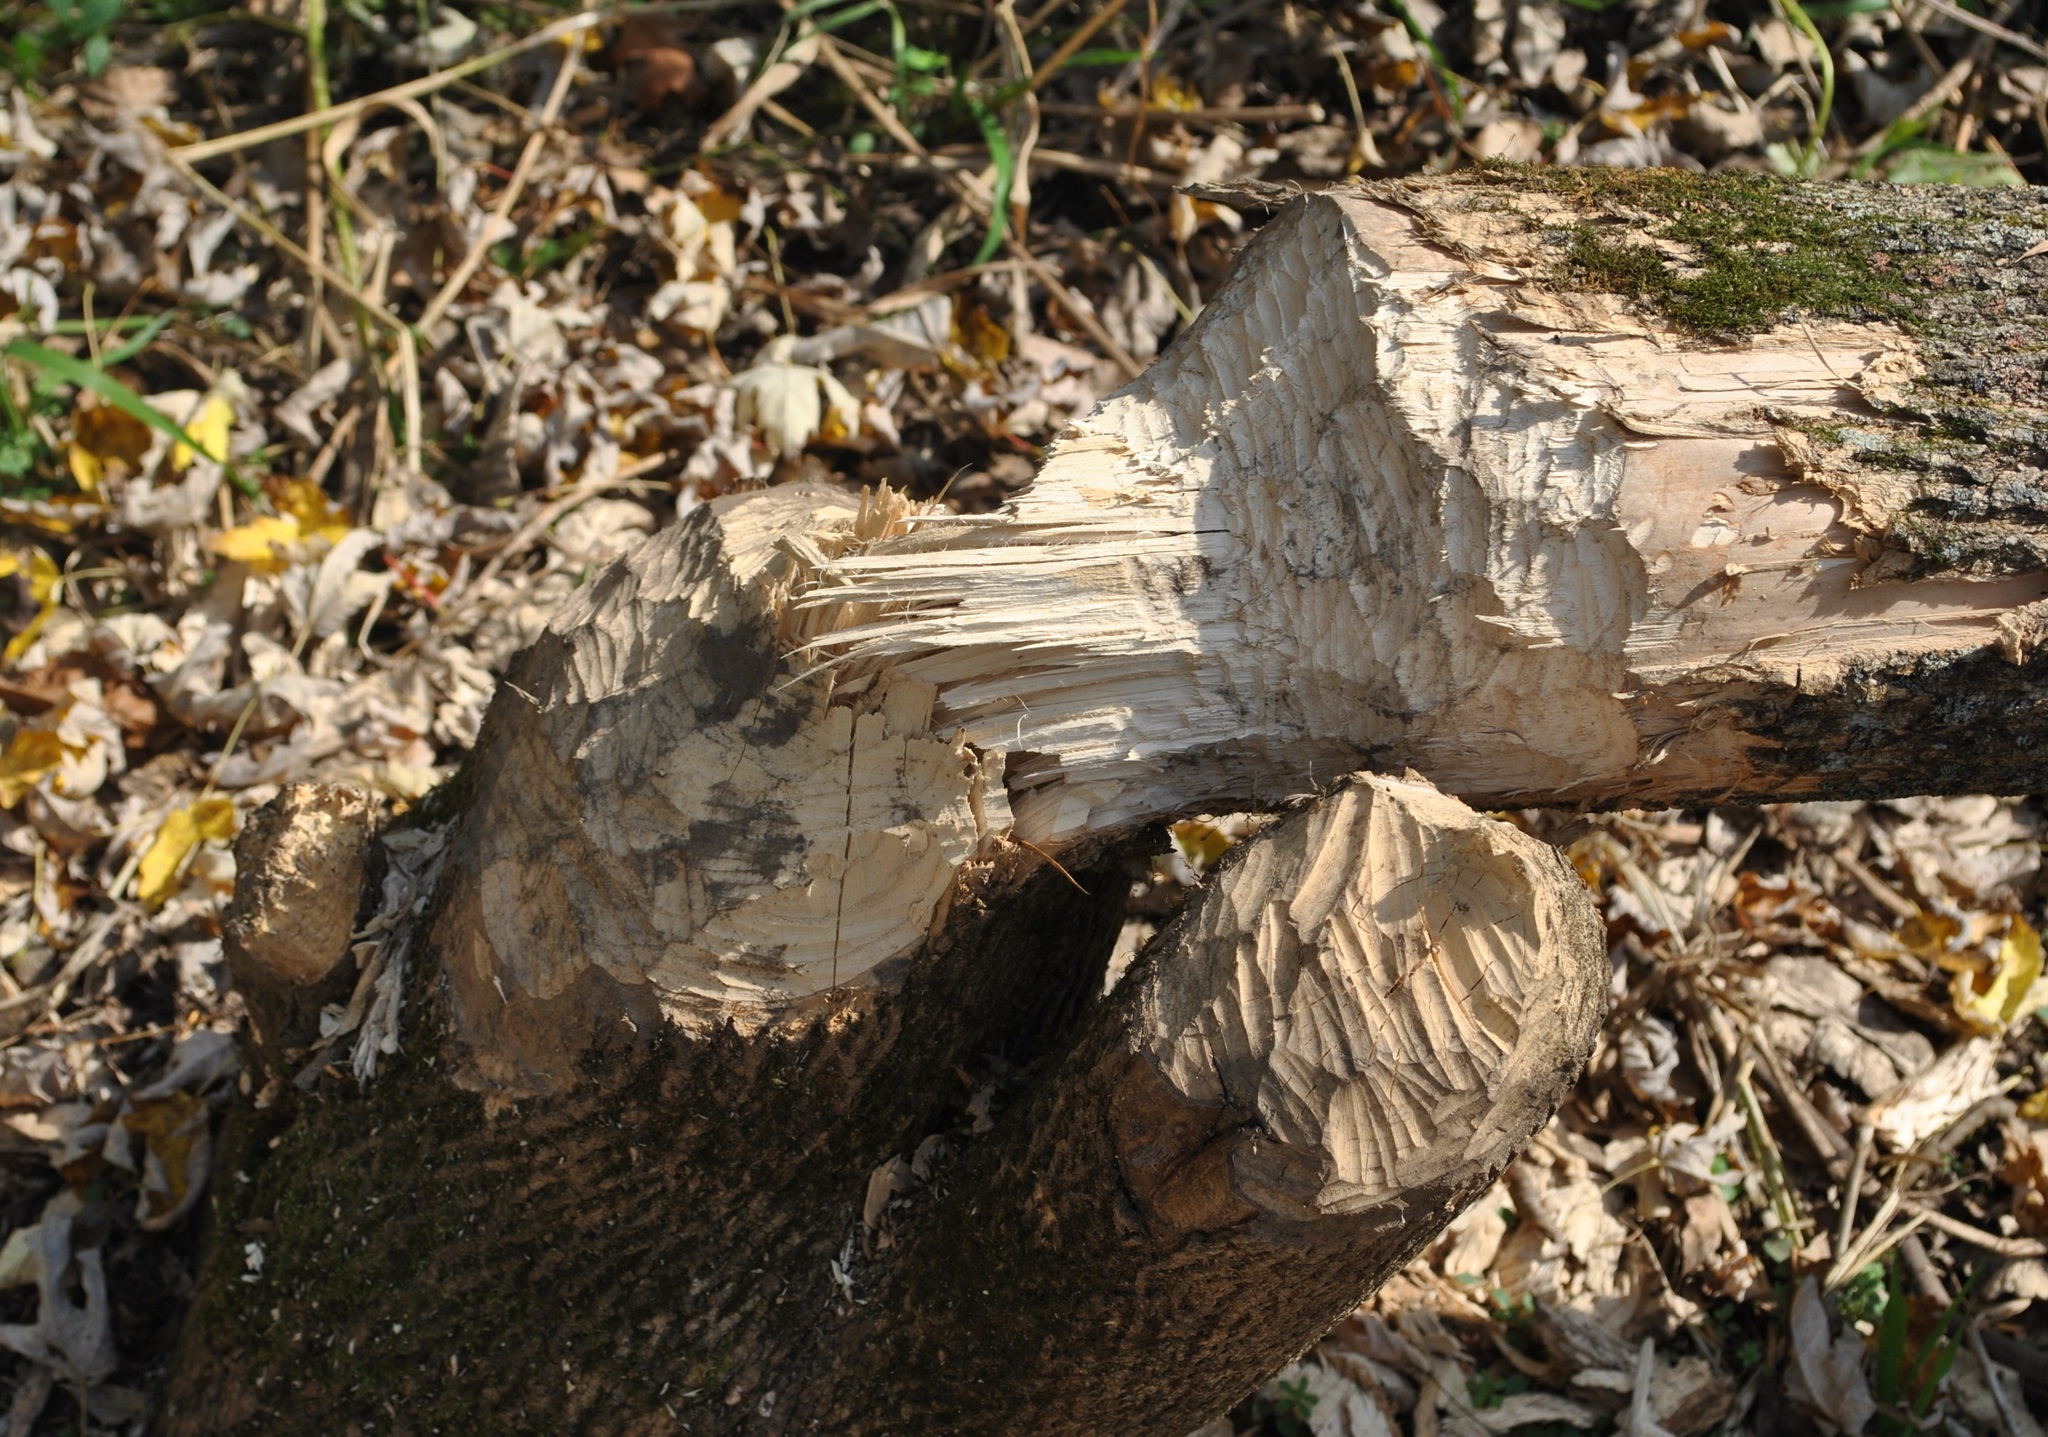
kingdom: Animalia
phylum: Chordata
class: Mammalia
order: Rodentia
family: Castoridae
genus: Castor
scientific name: Castor canadensis
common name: American beaver
